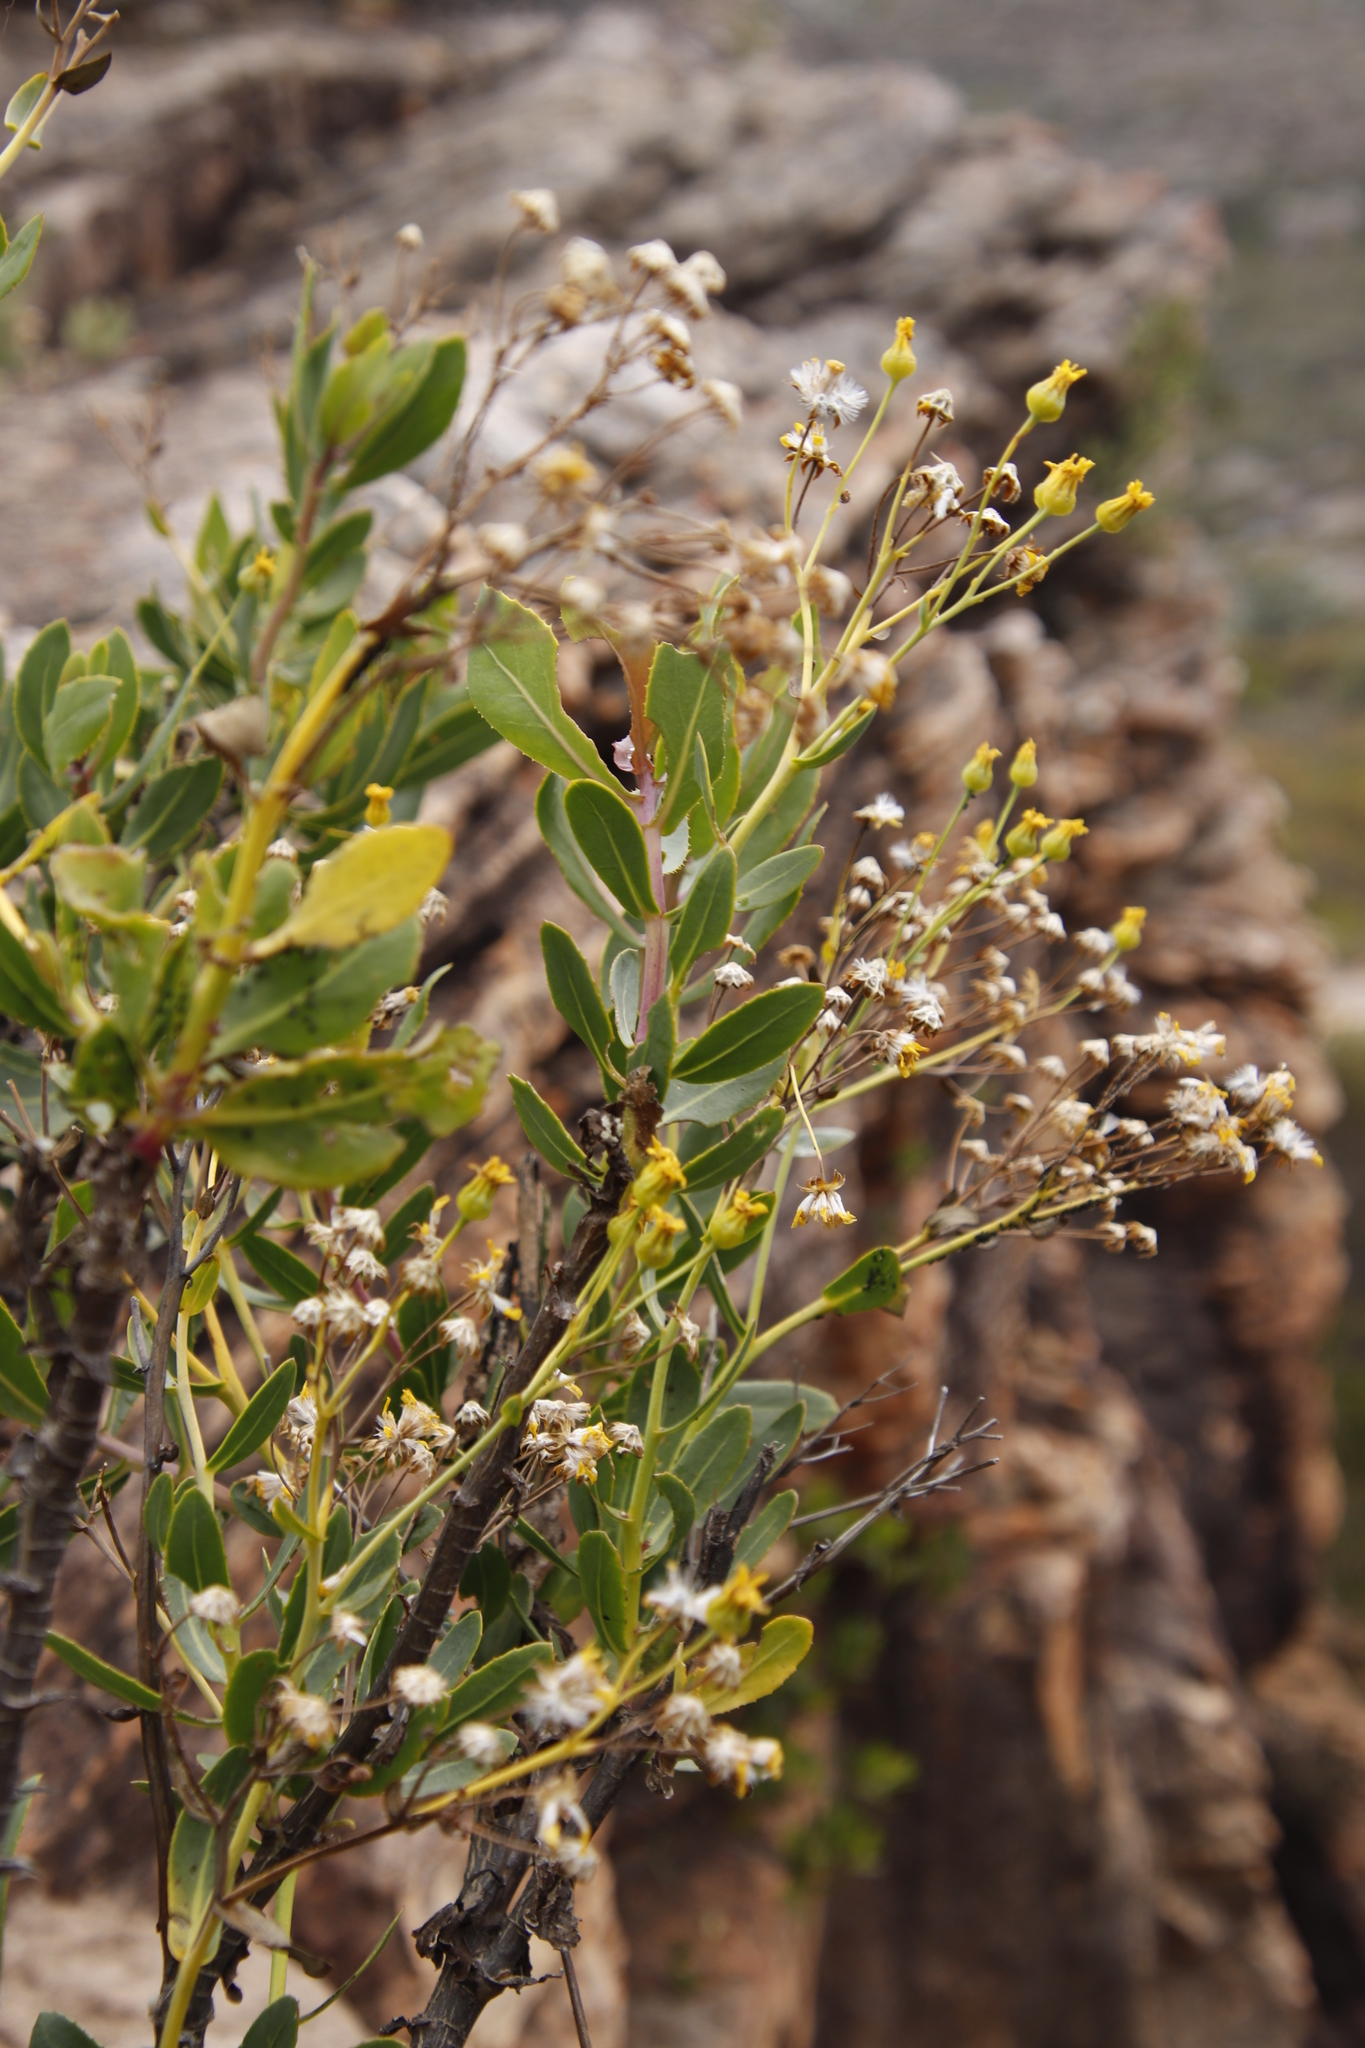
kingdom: Plantae
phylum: Tracheophyta
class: Magnoliopsida
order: Asterales
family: Asteraceae
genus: Othonna
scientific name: Othonna parviflora
